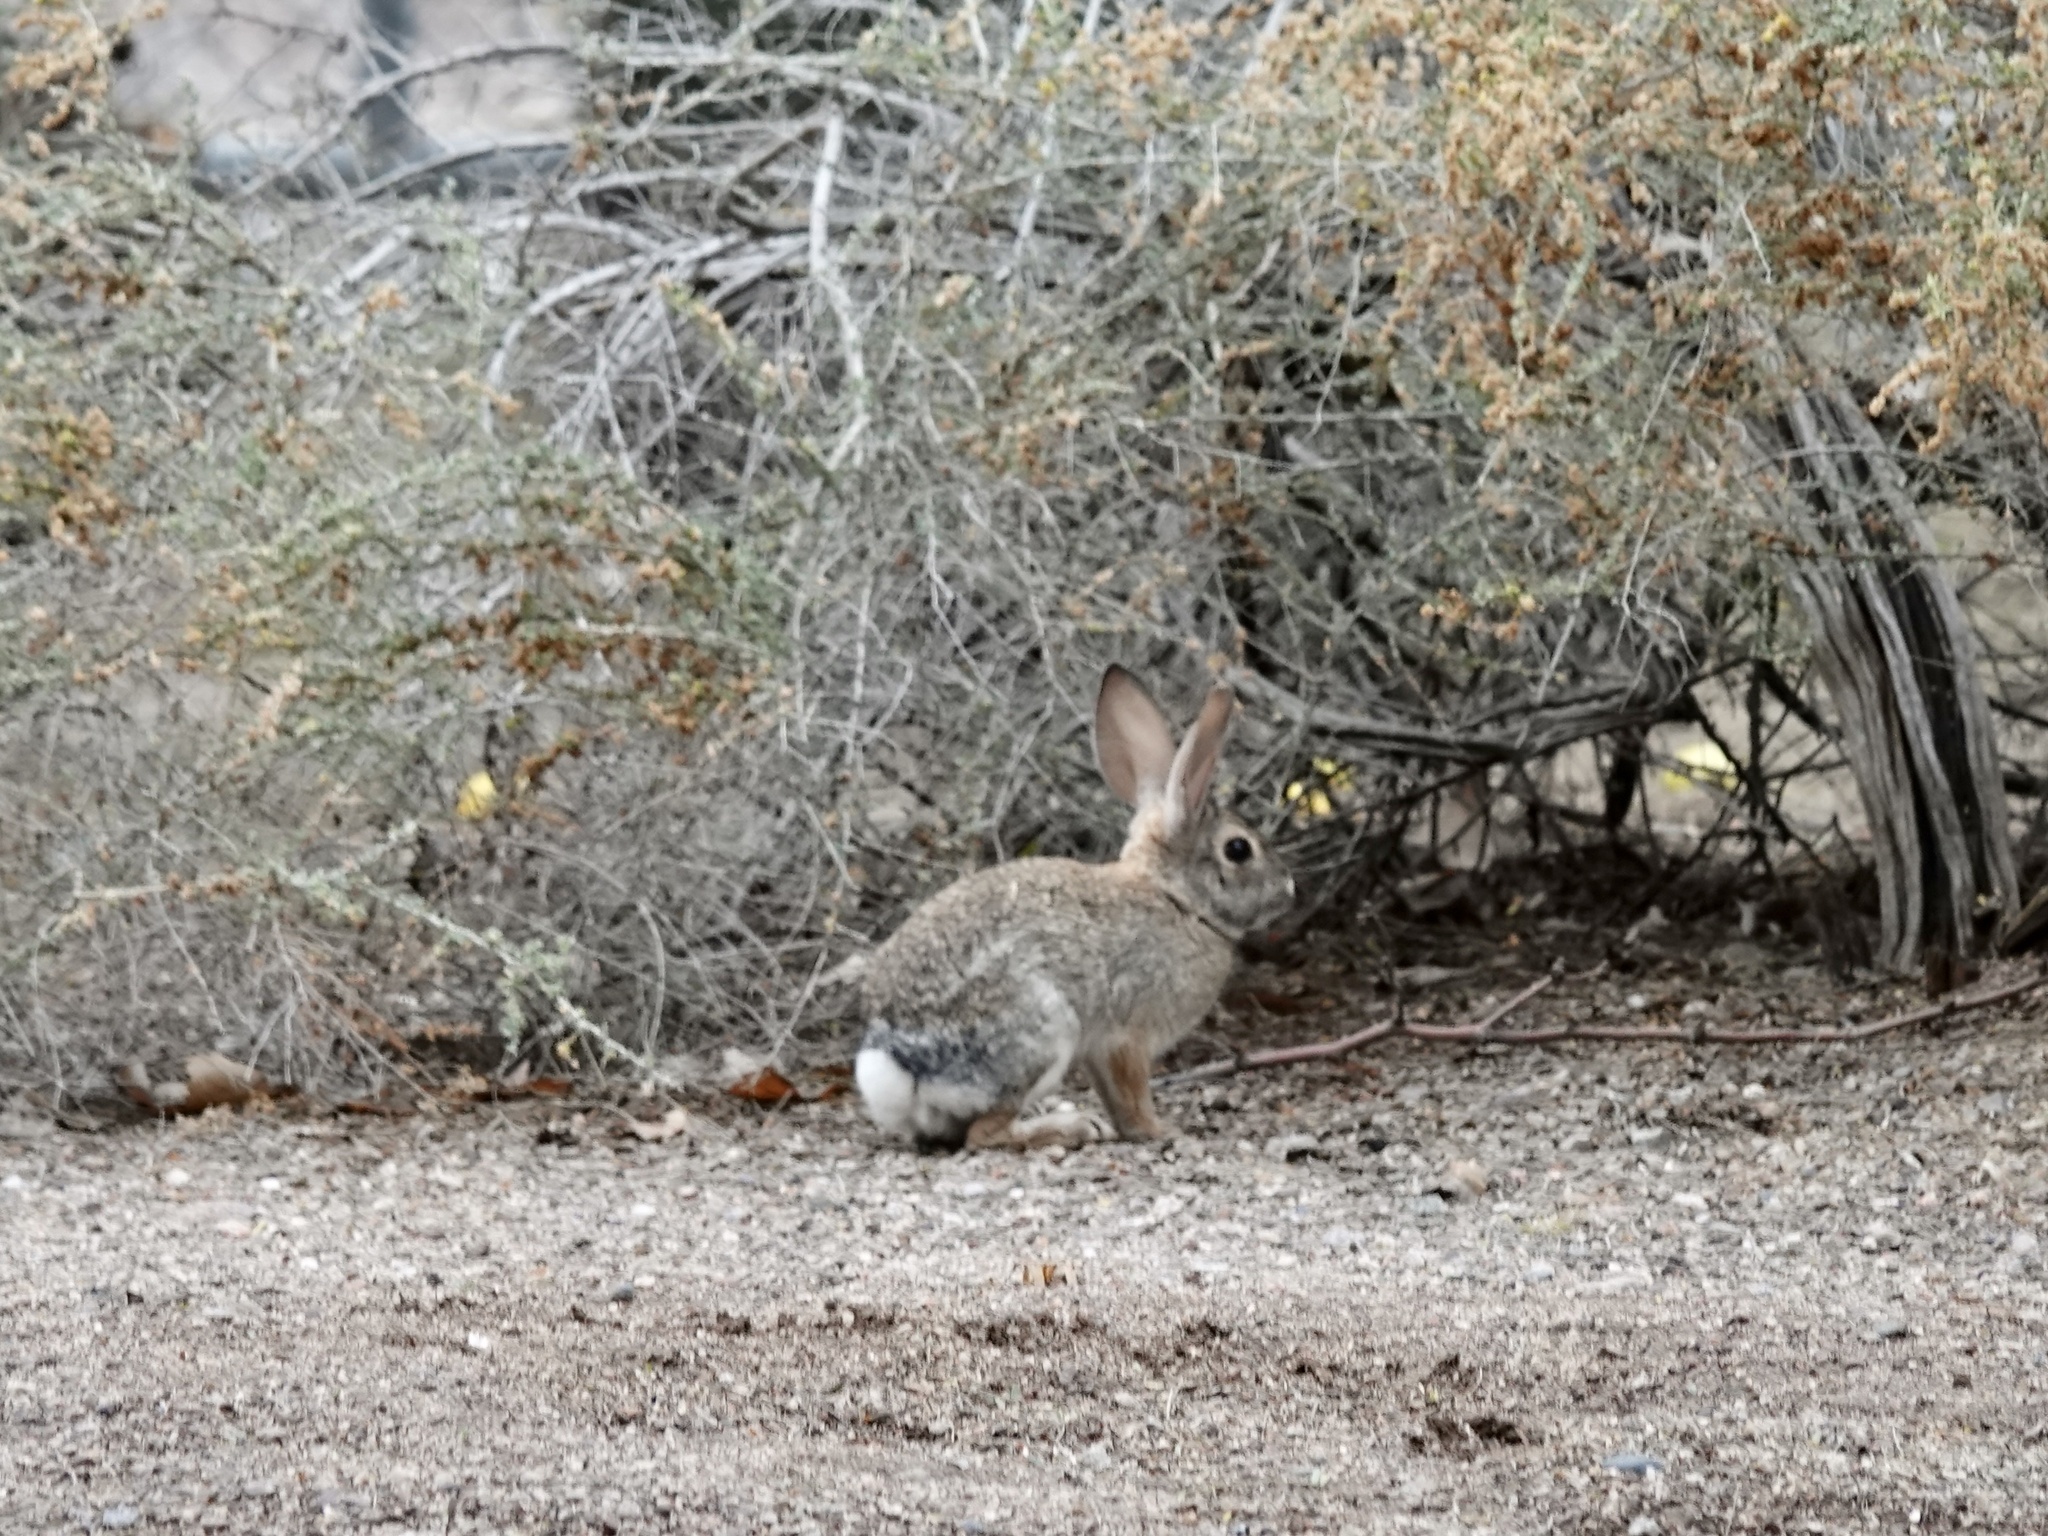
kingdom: Animalia
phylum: Chordata
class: Mammalia
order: Lagomorpha
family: Leporidae
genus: Sylvilagus
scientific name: Sylvilagus audubonii
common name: Desert cottontail
